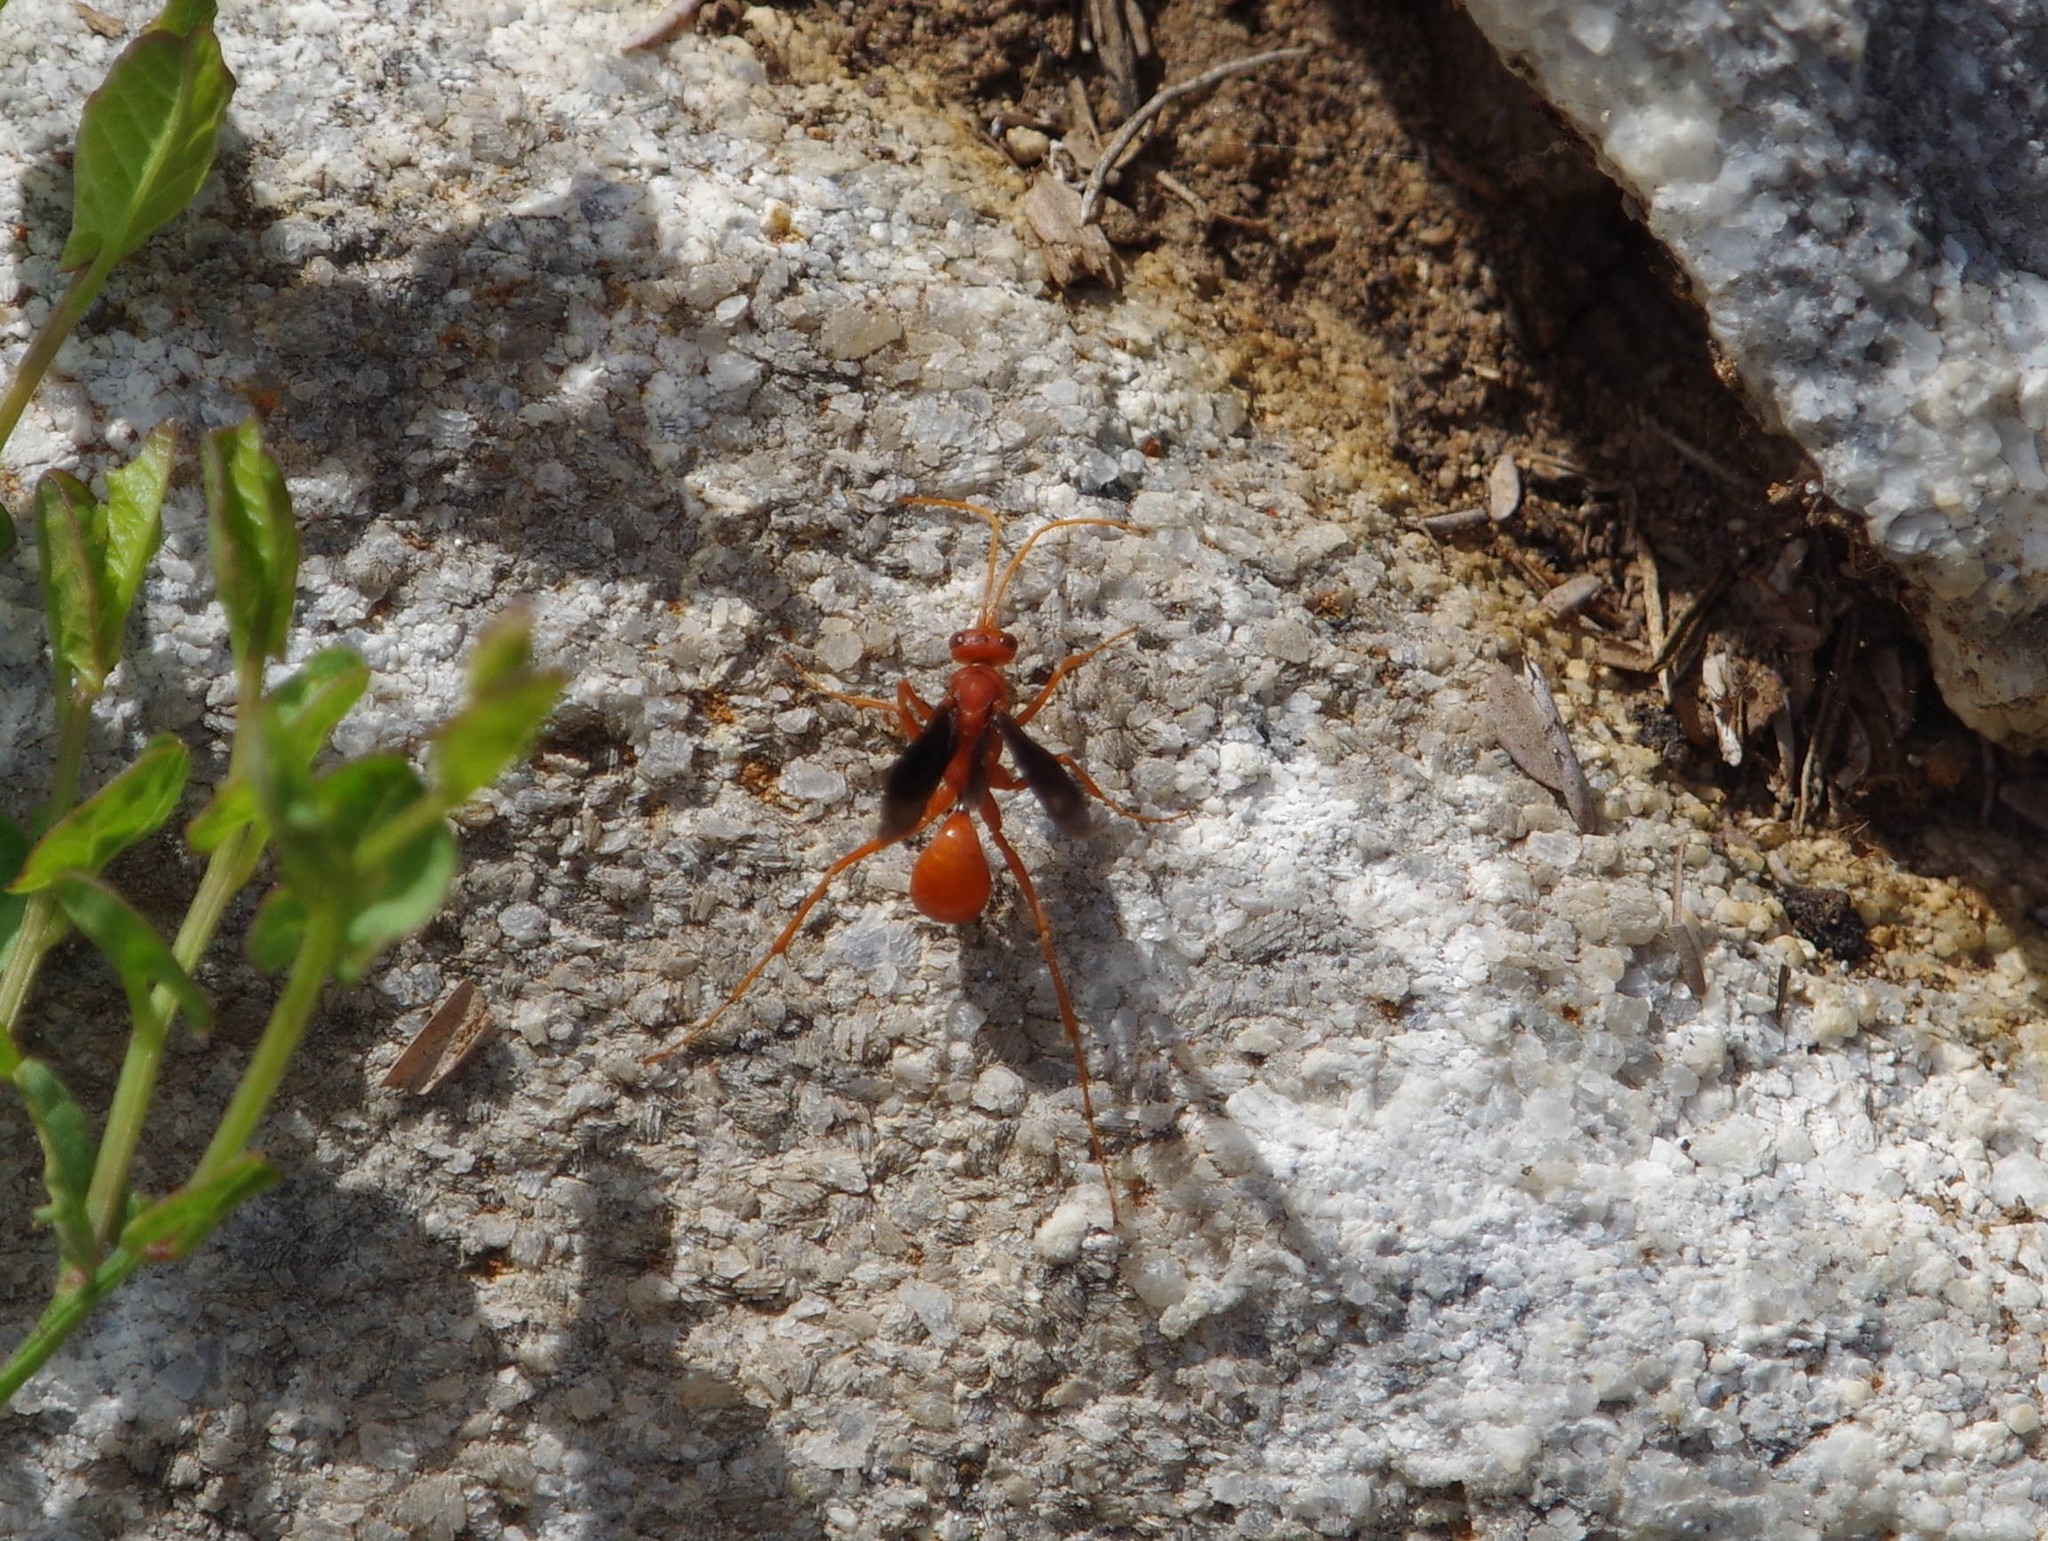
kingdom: Animalia
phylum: Arthropoda
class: Insecta
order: Hymenoptera
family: Pompilidae
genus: Ageniella
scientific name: Ageniella coronata
